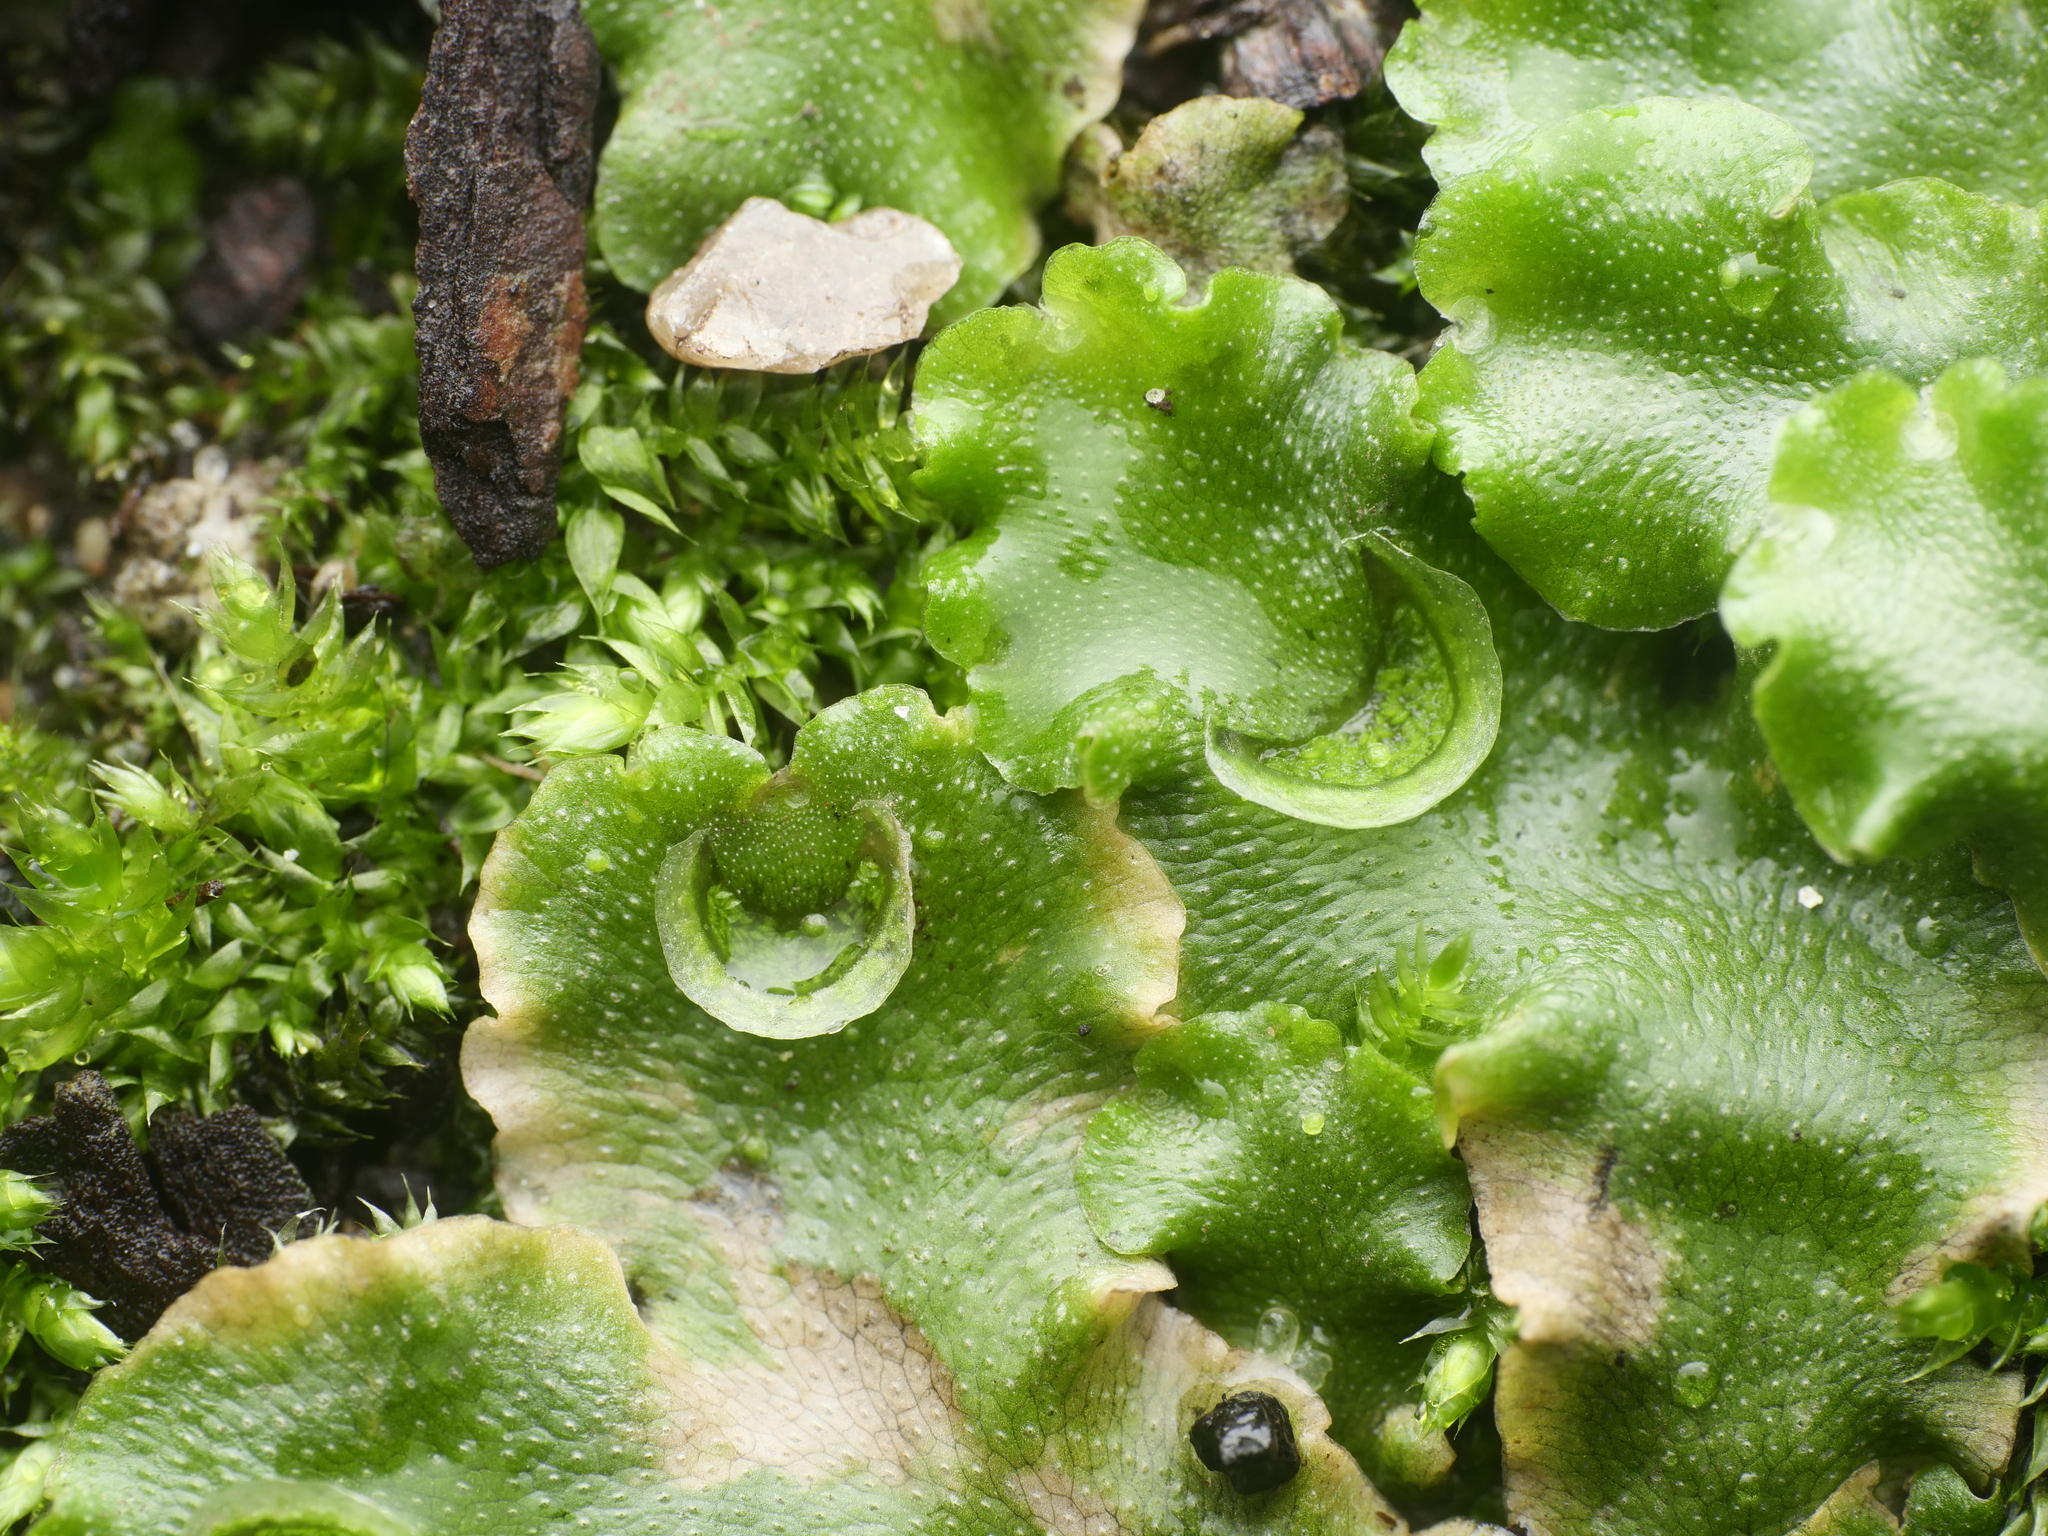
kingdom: Plantae
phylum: Marchantiophyta
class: Marchantiopsida
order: Lunulariales
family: Lunulariaceae
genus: Lunularia
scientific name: Lunularia cruciata
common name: Crescent-cup liverwort
